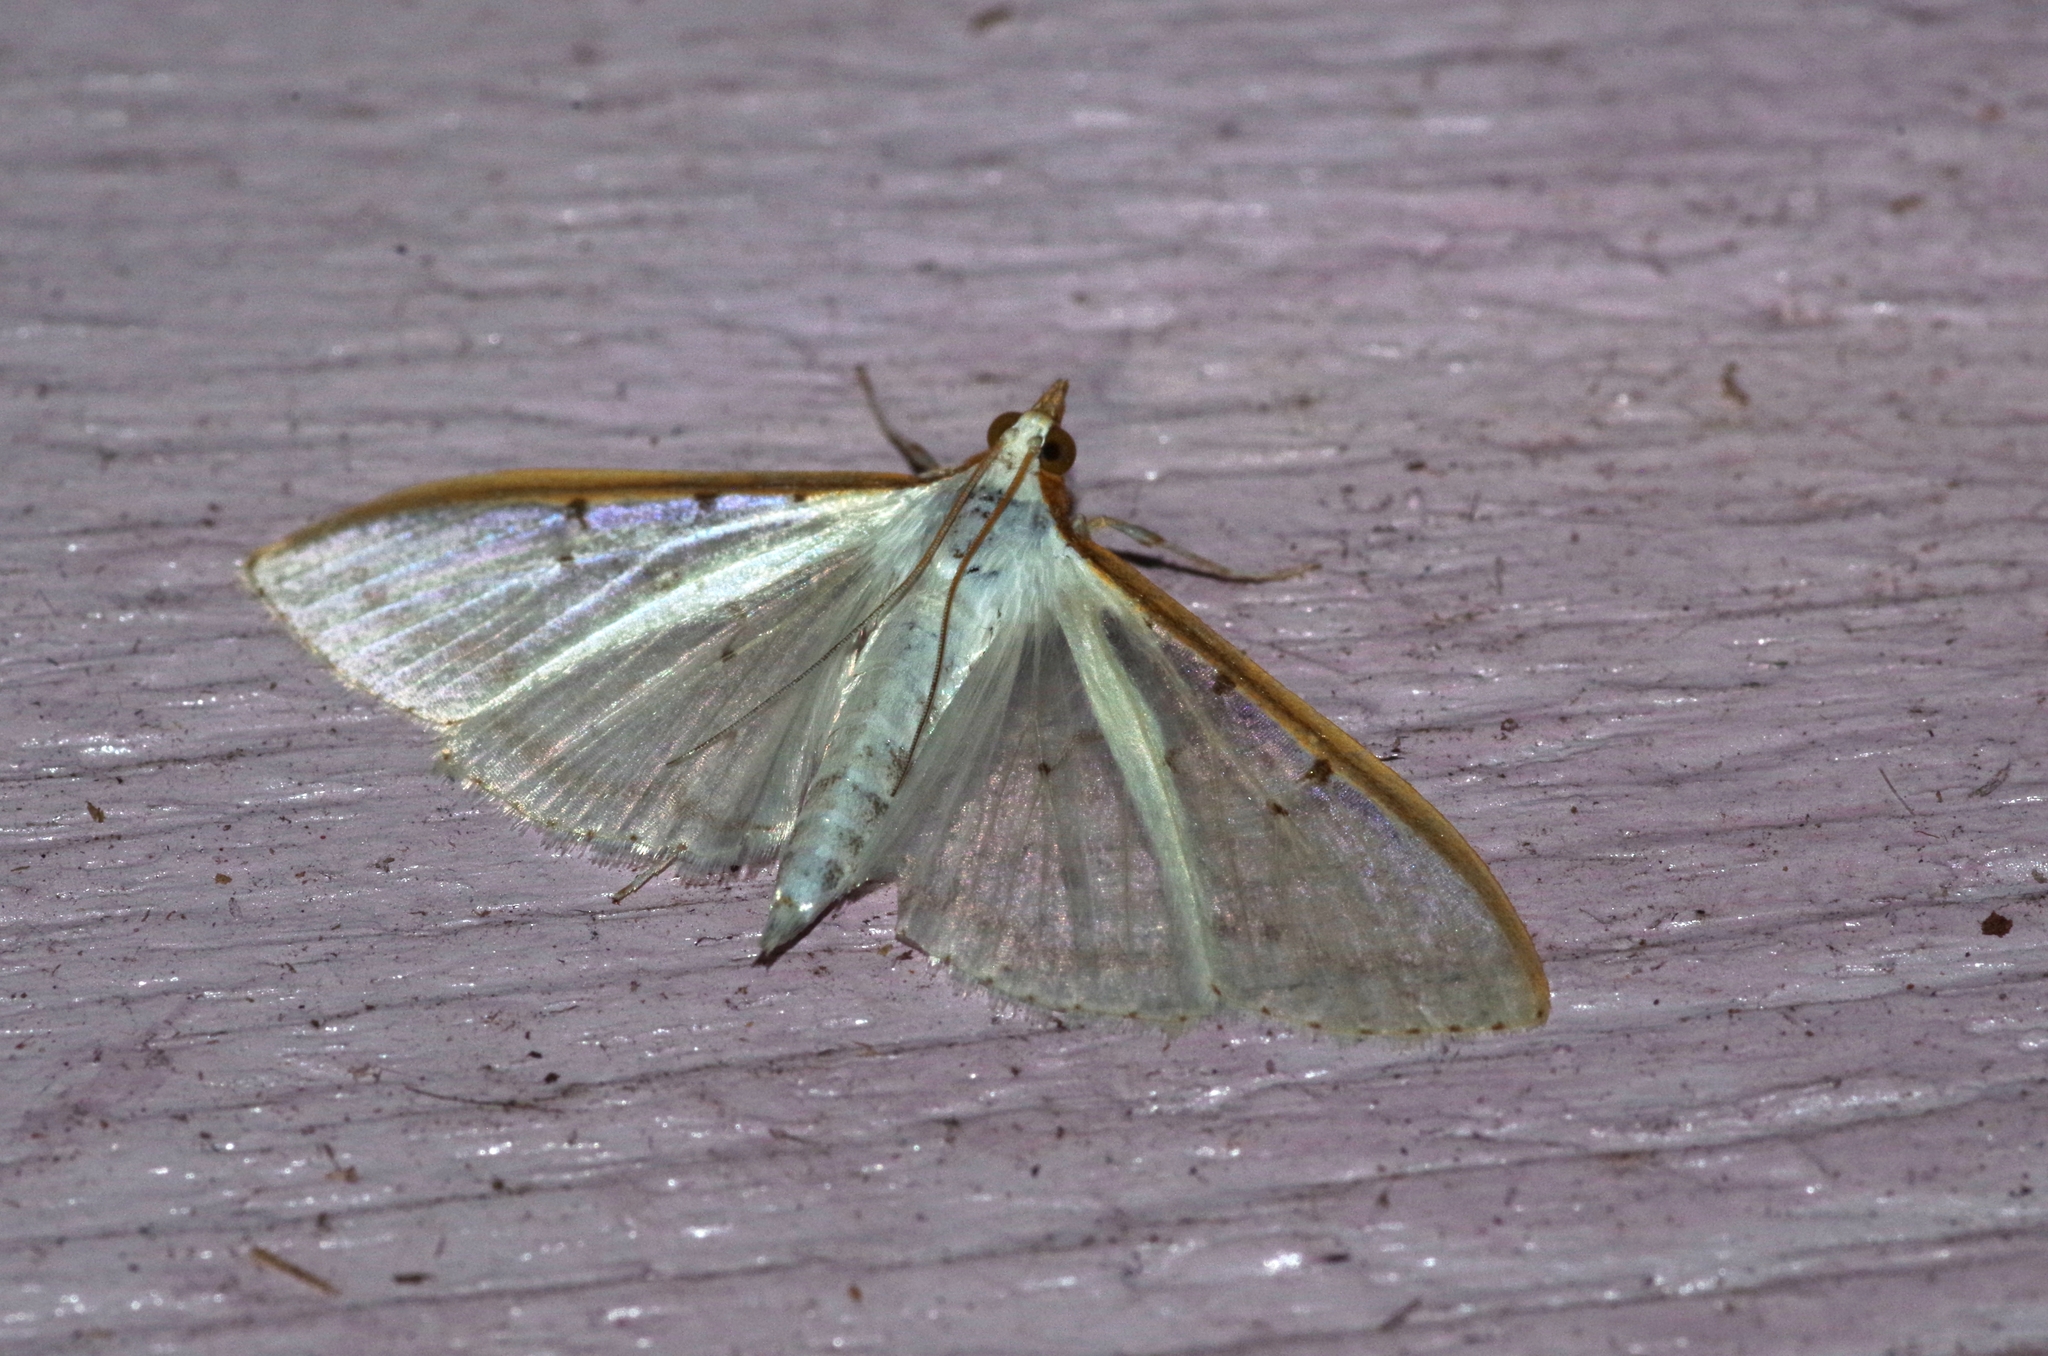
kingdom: Animalia
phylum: Arthropoda
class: Insecta
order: Lepidoptera
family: Crambidae
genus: Palpita
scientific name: Palpita nigropunctalis
